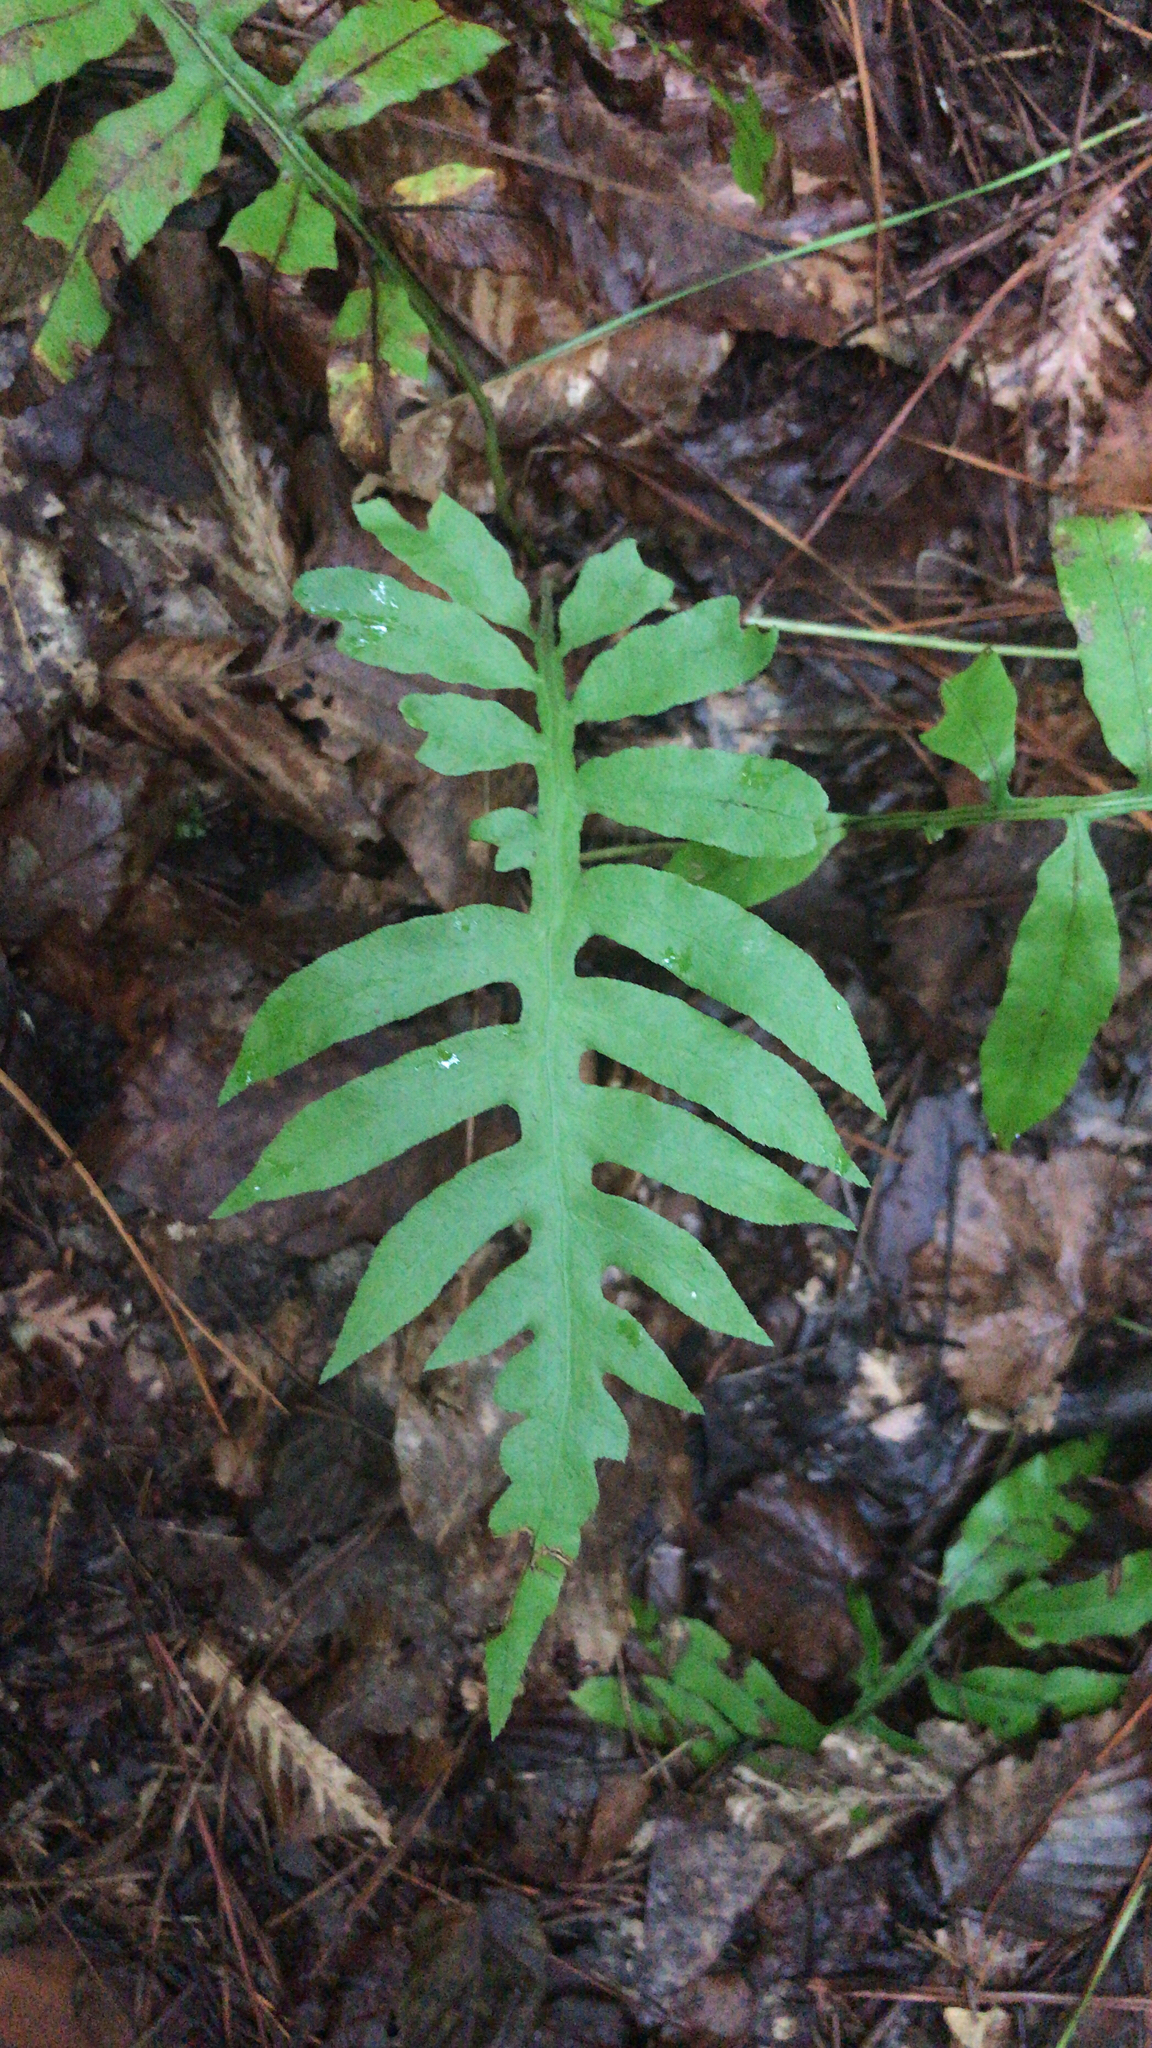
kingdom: Plantae
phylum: Tracheophyta
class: Polypodiopsida
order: Polypodiales
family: Blechnaceae
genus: Lorinseria
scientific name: Lorinseria areolata
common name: Dwarf chain fern
